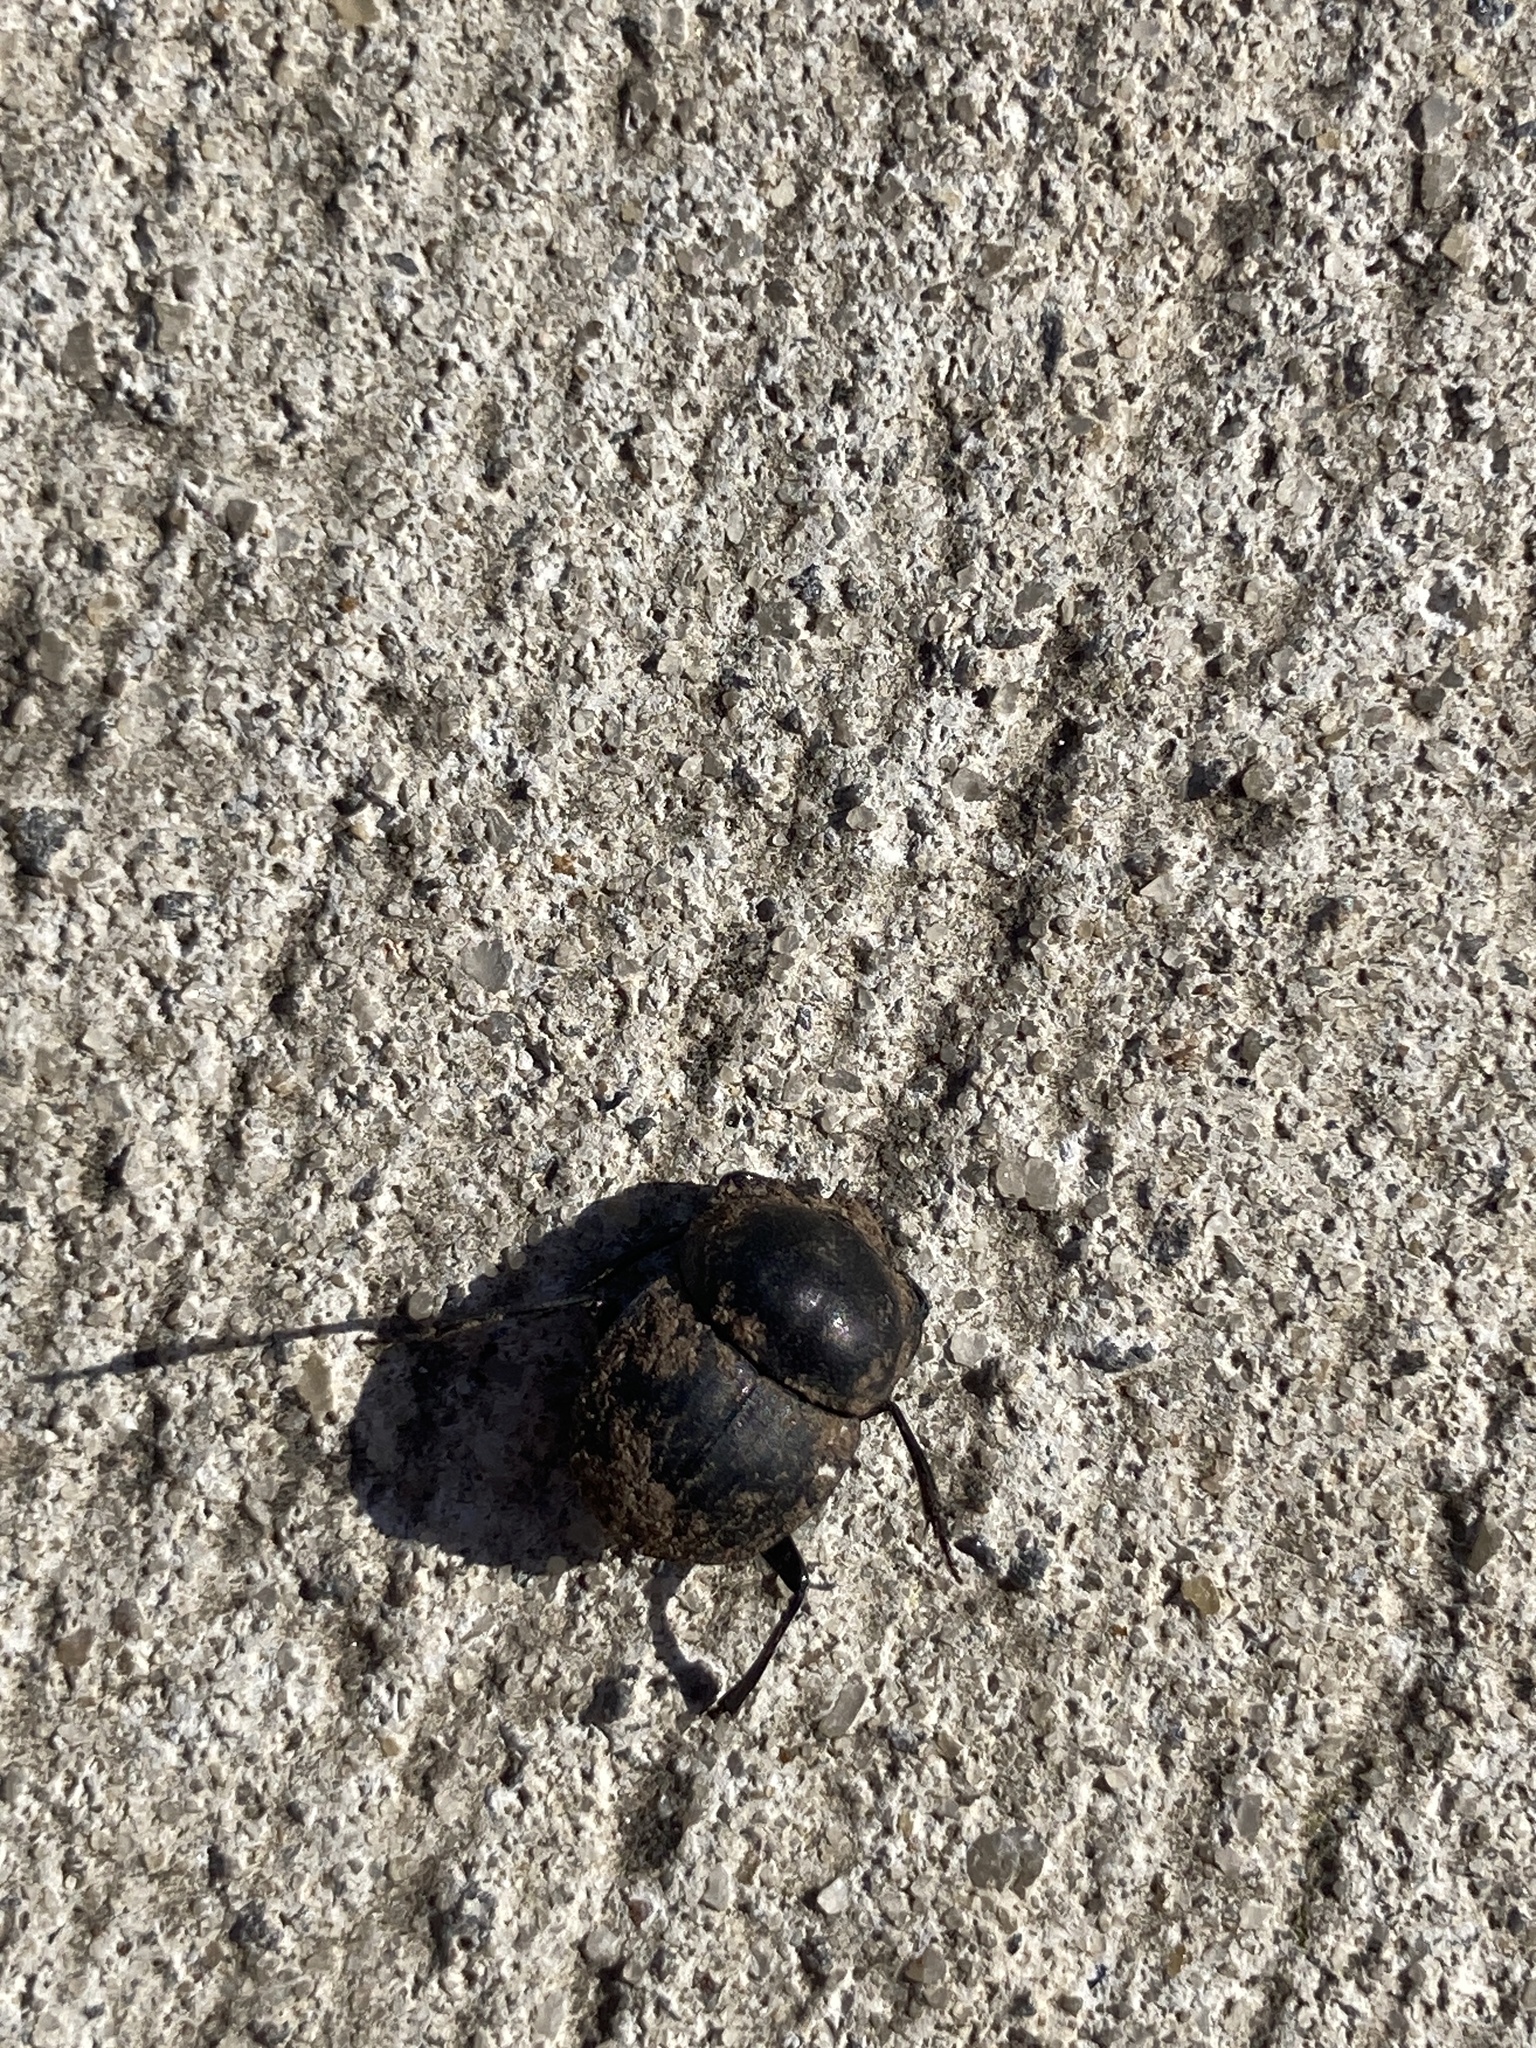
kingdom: Animalia
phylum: Arthropoda
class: Insecta
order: Coleoptera
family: Scarabaeidae
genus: Cephalodesmius
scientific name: Cephalodesmius armiger
